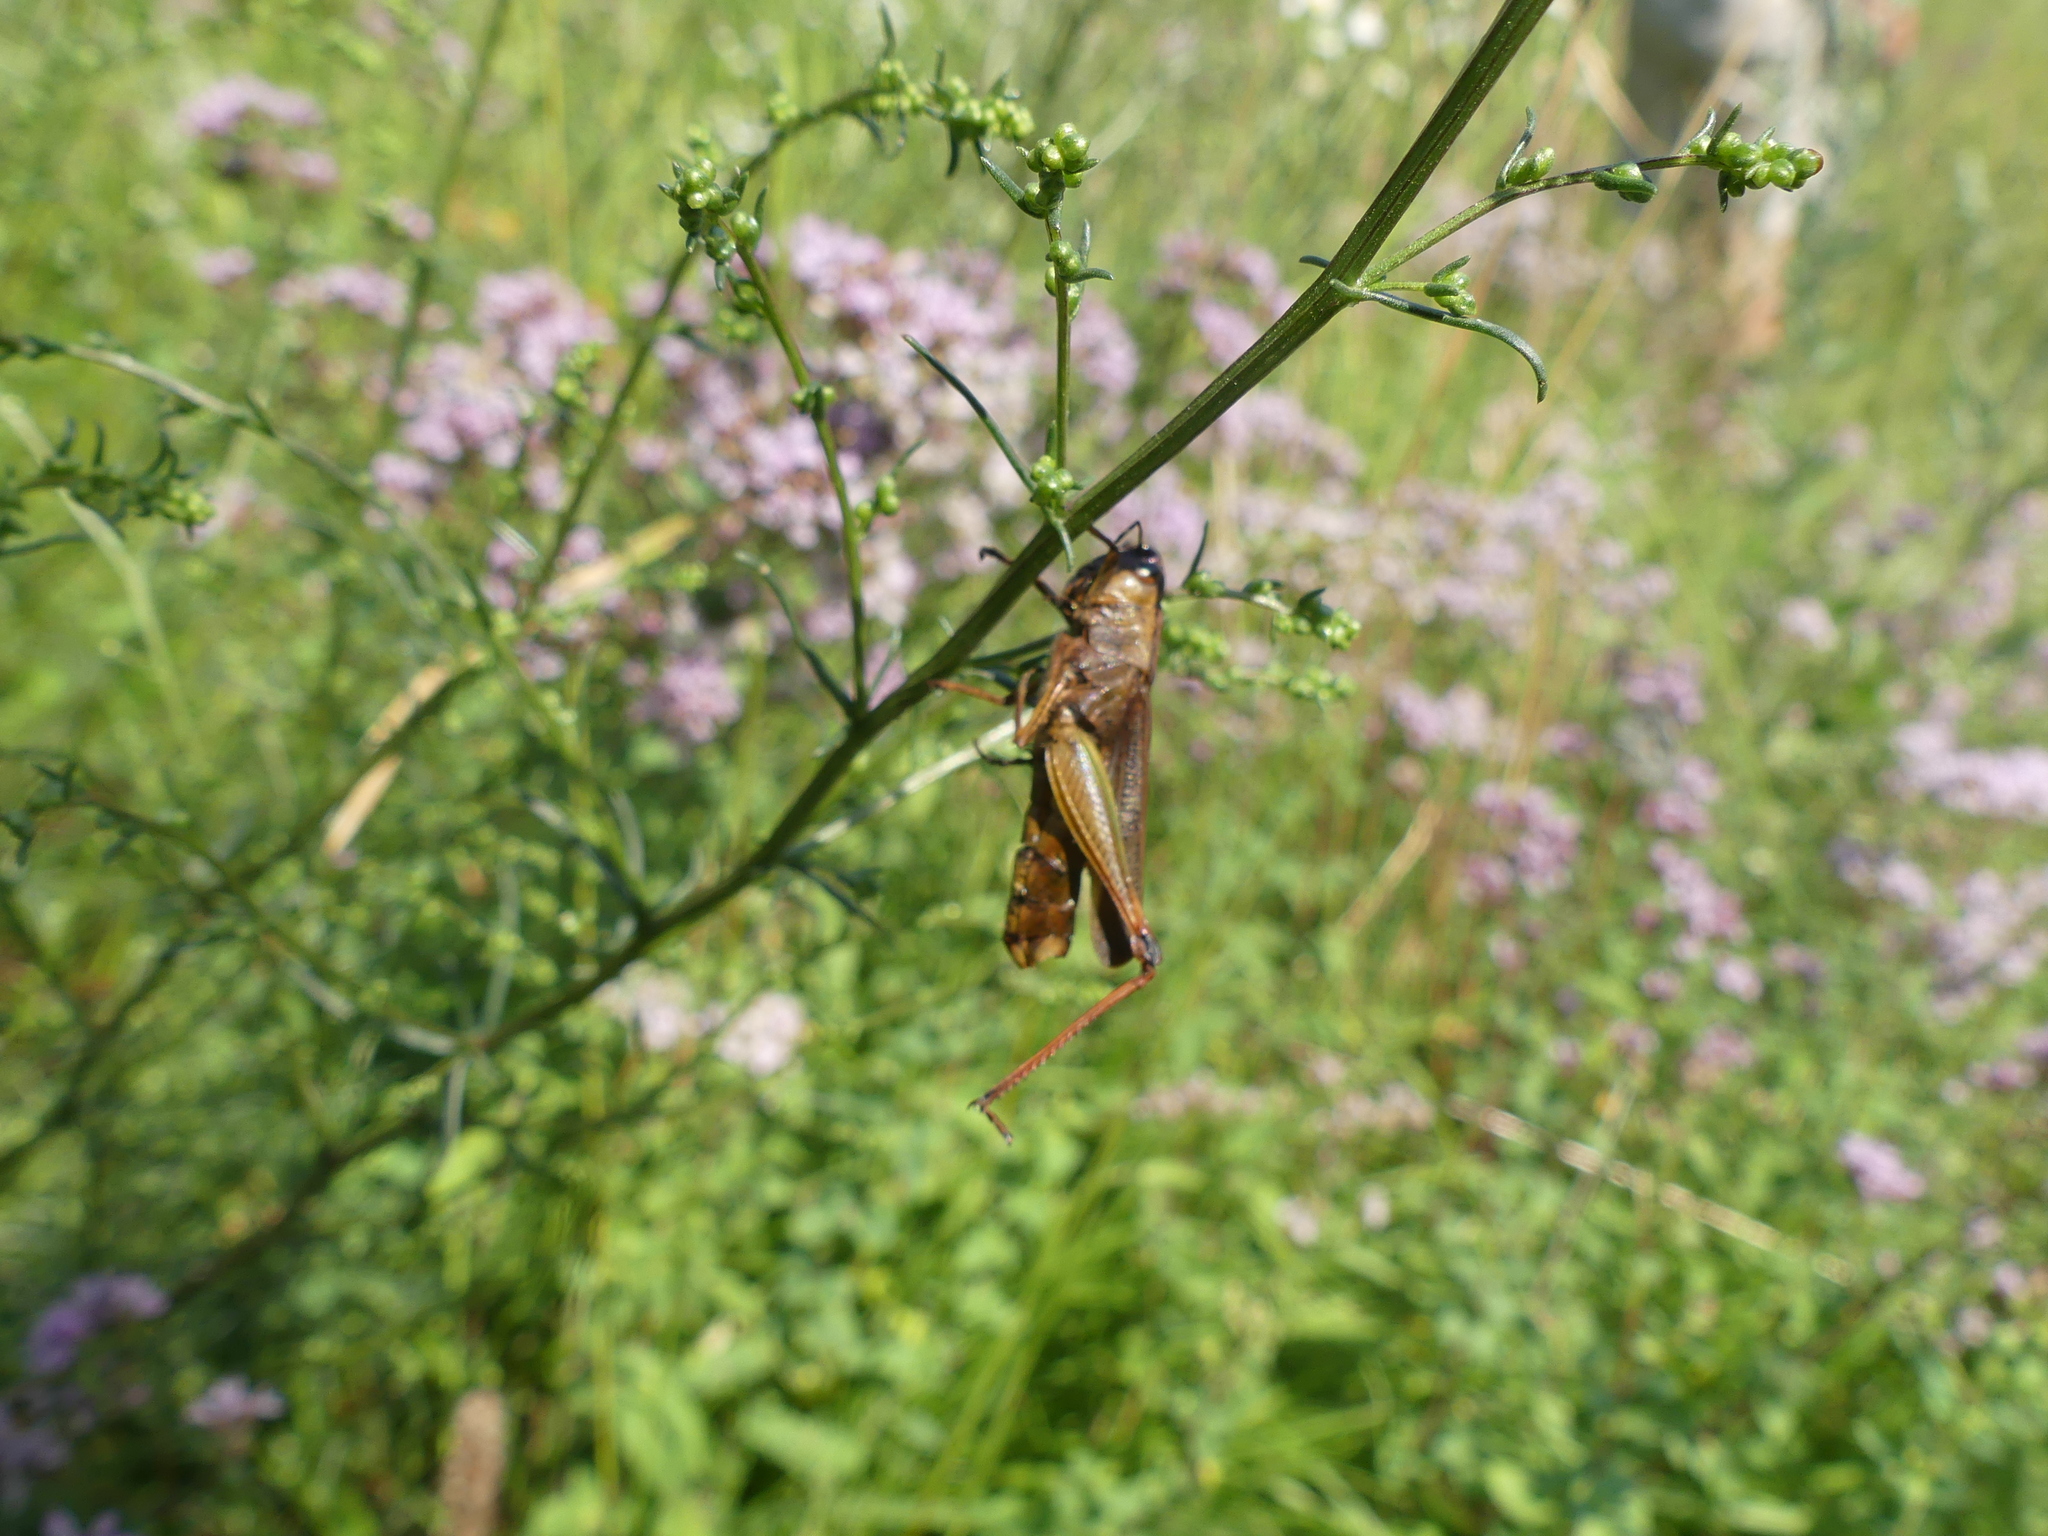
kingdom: Fungi
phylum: Entomophthoromycota
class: Entomophthoromycetes
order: Entomophthorales
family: Entomophthoraceae
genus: Entomophaga
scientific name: Entomophaga grylli
